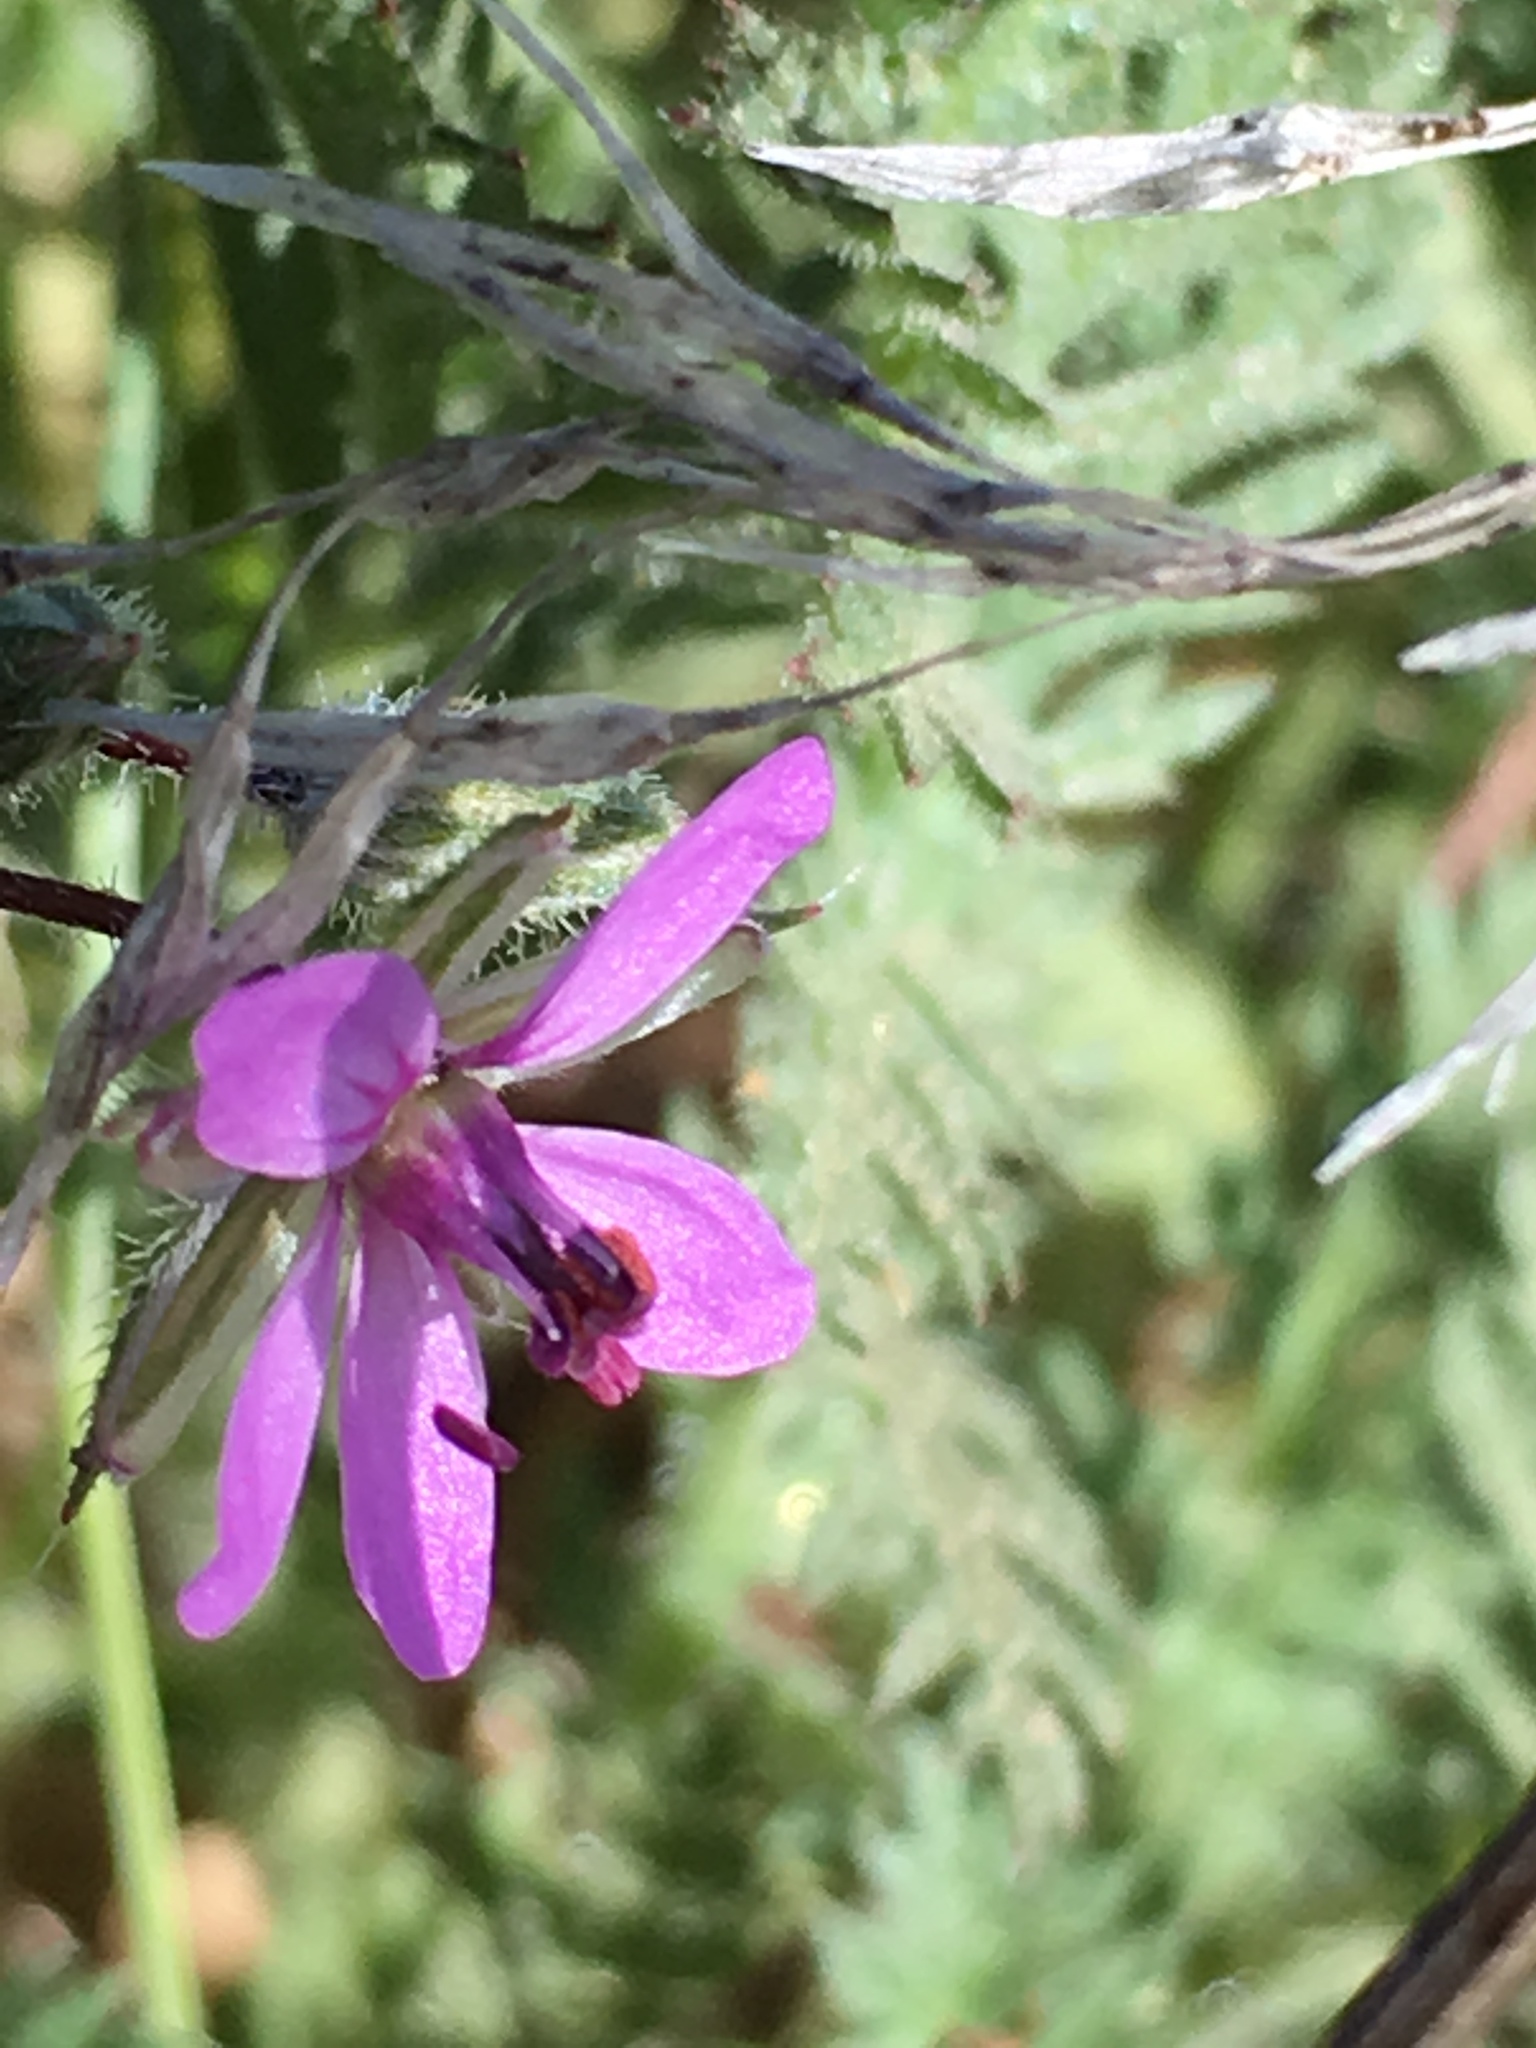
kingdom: Plantae
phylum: Tracheophyta
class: Magnoliopsida
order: Geraniales
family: Geraniaceae
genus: Erodium
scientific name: Erodium cicutarium
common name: Common stork's-bill
